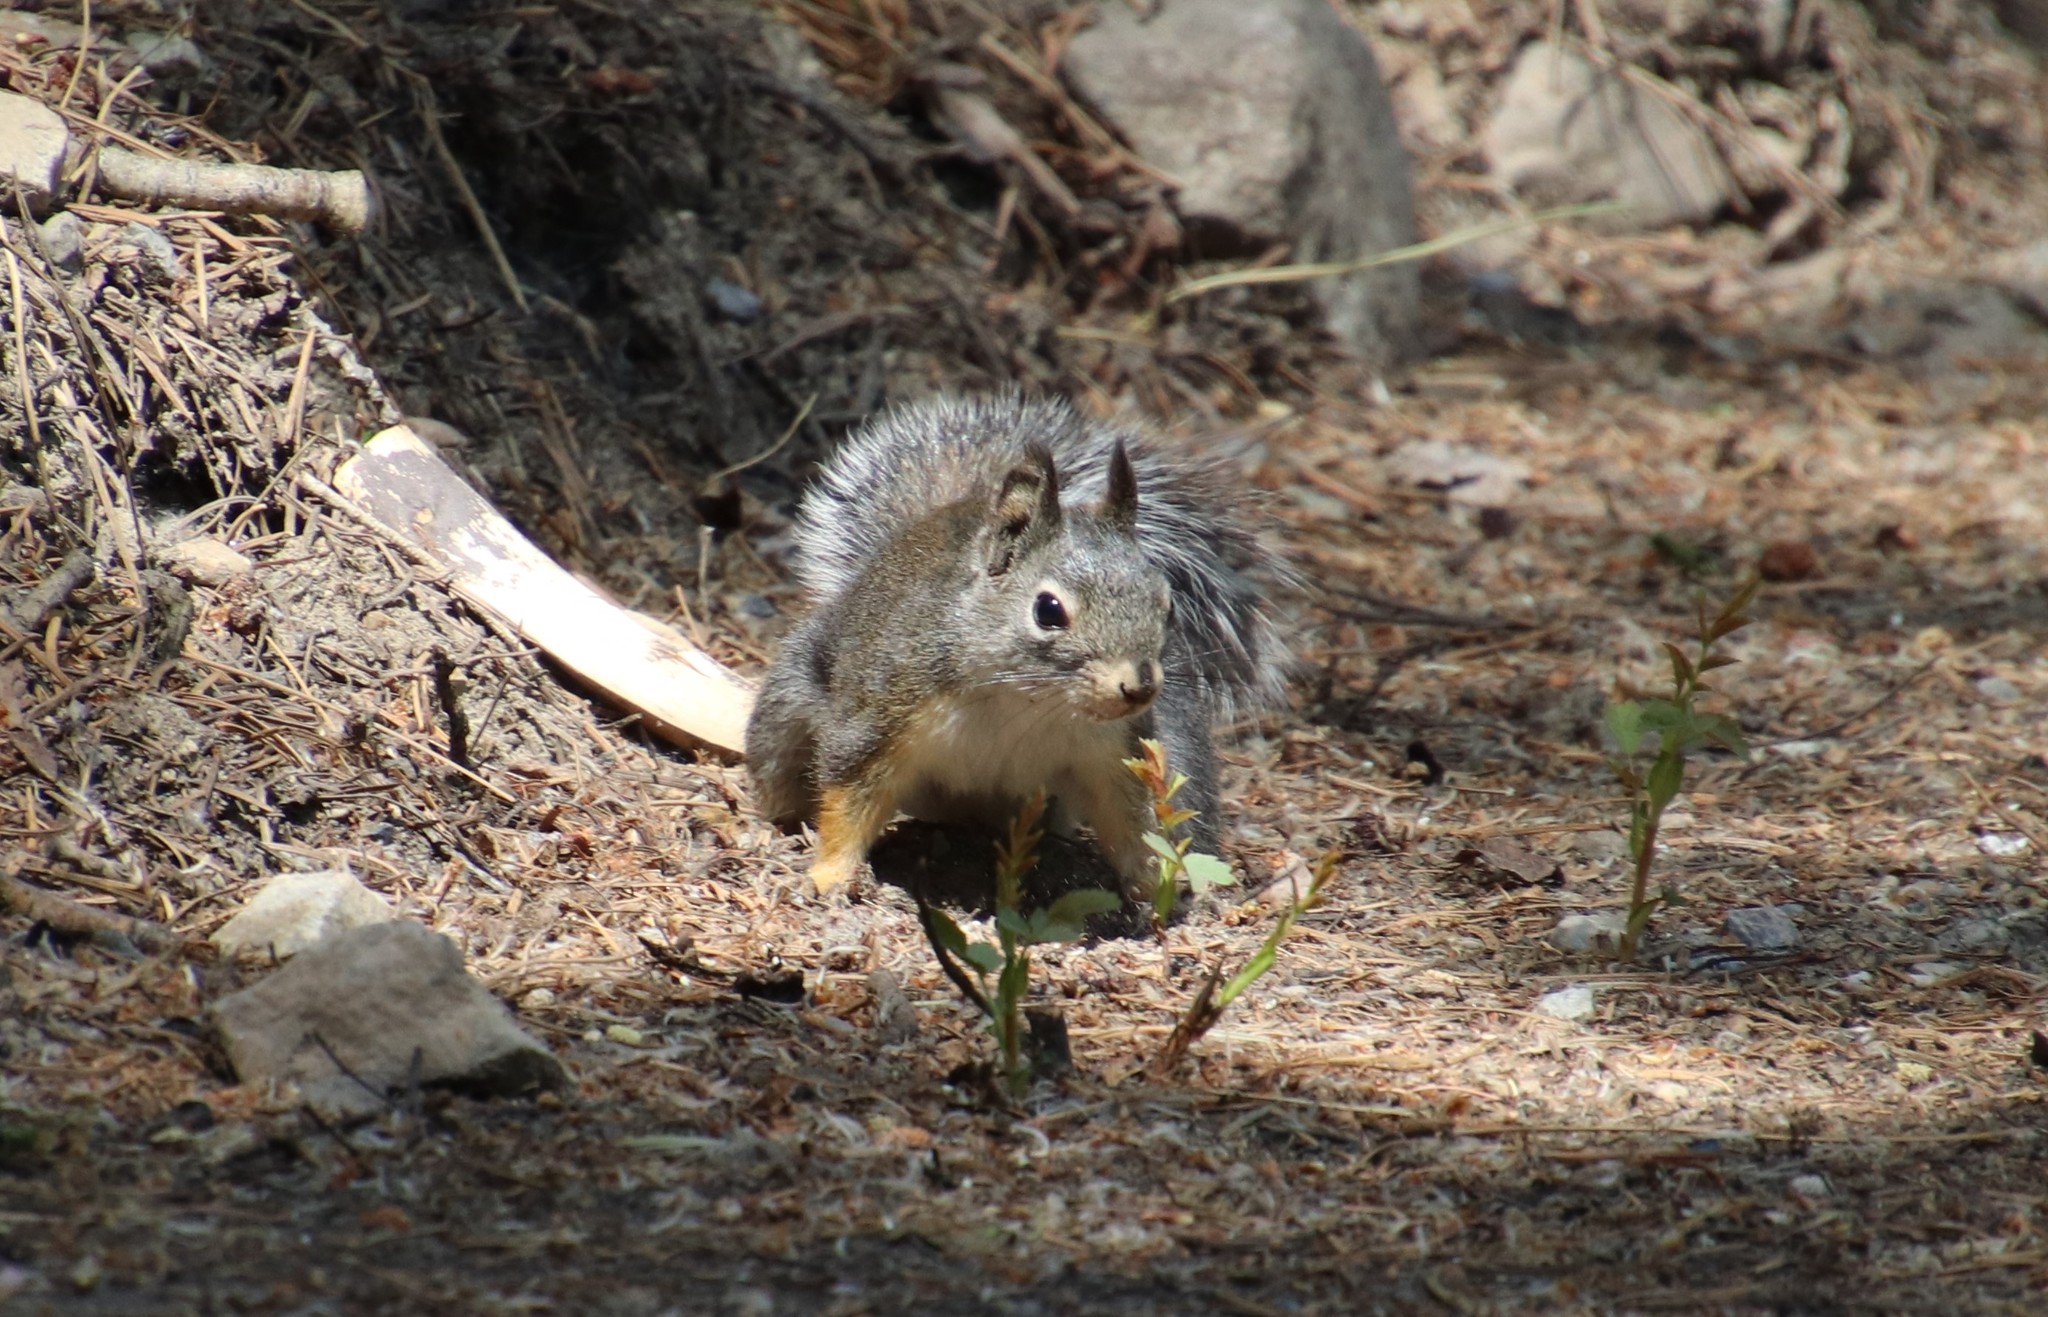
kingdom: Animalia
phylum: Chordata
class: Mammalia
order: Rodentia
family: Sciuridae
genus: Tamiasciurus
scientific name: Tamiasciurus douglasii
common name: Douglas's squirrel
